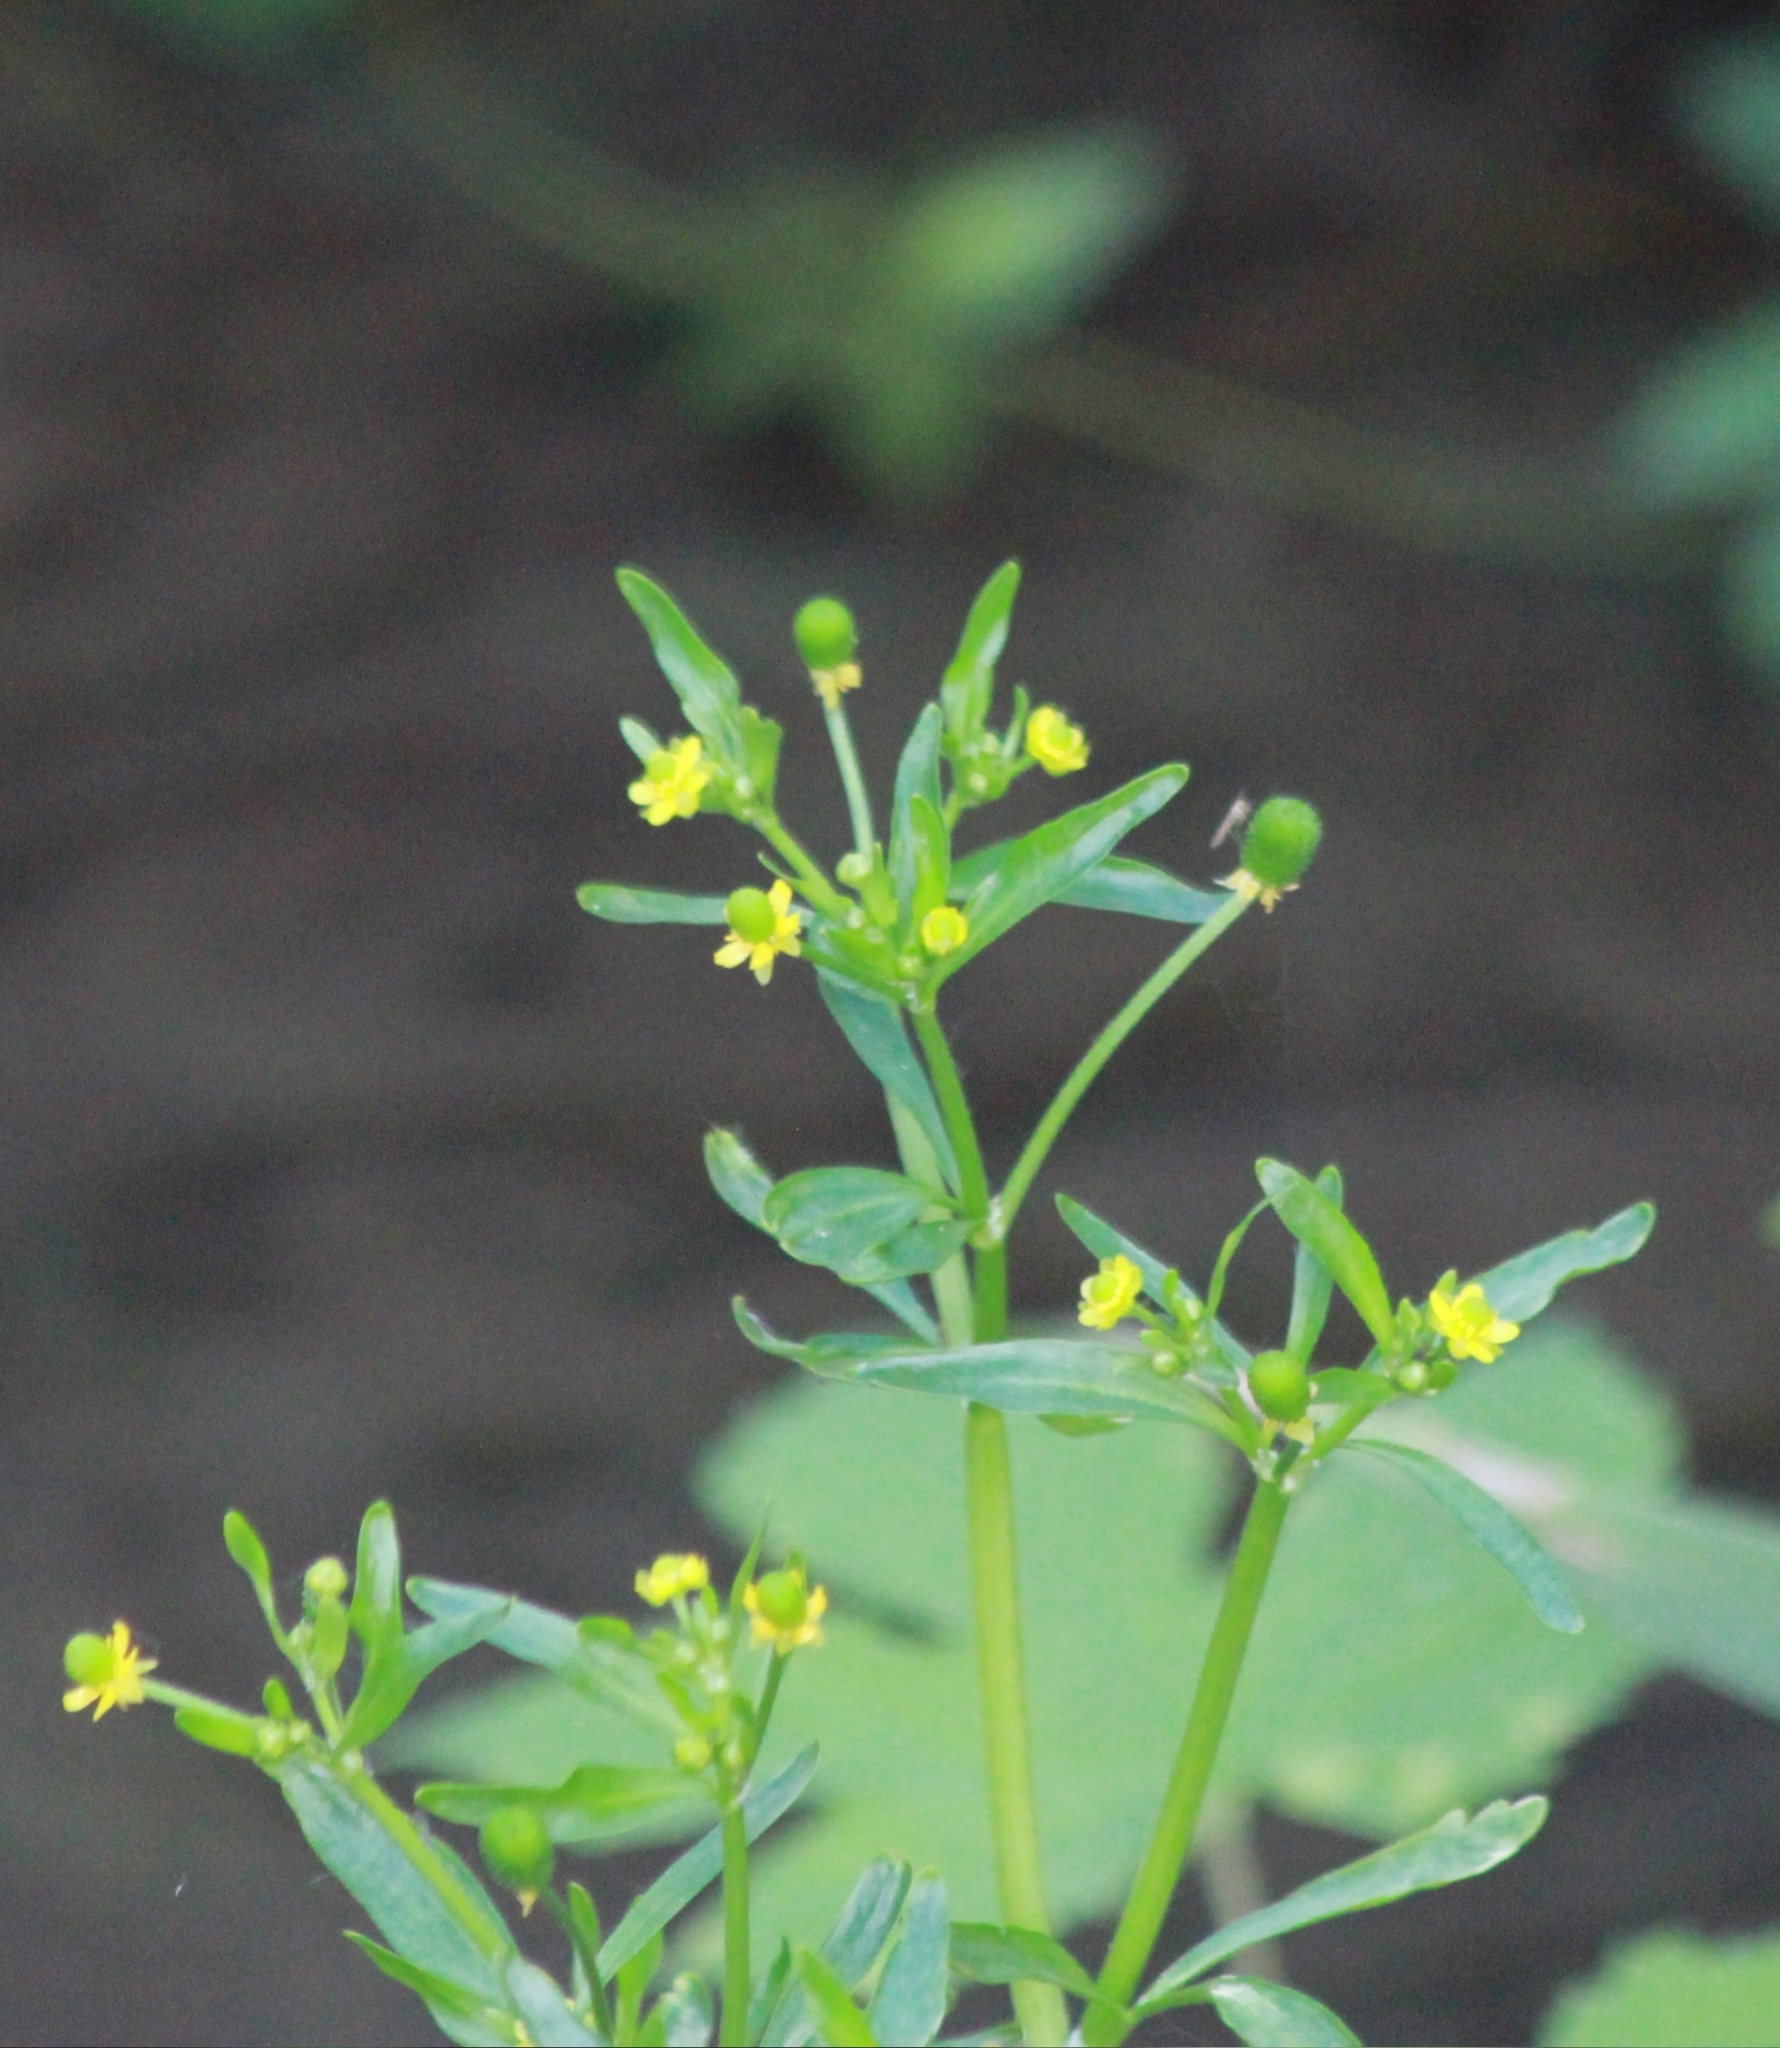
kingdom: Plantae
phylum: Tracheophyta
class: Magnoliopsida
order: Ranunculales
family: Ranunculaceae
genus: Ranunculus
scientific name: Ranunculus sceleratus
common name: Celery-leaved buttercup
